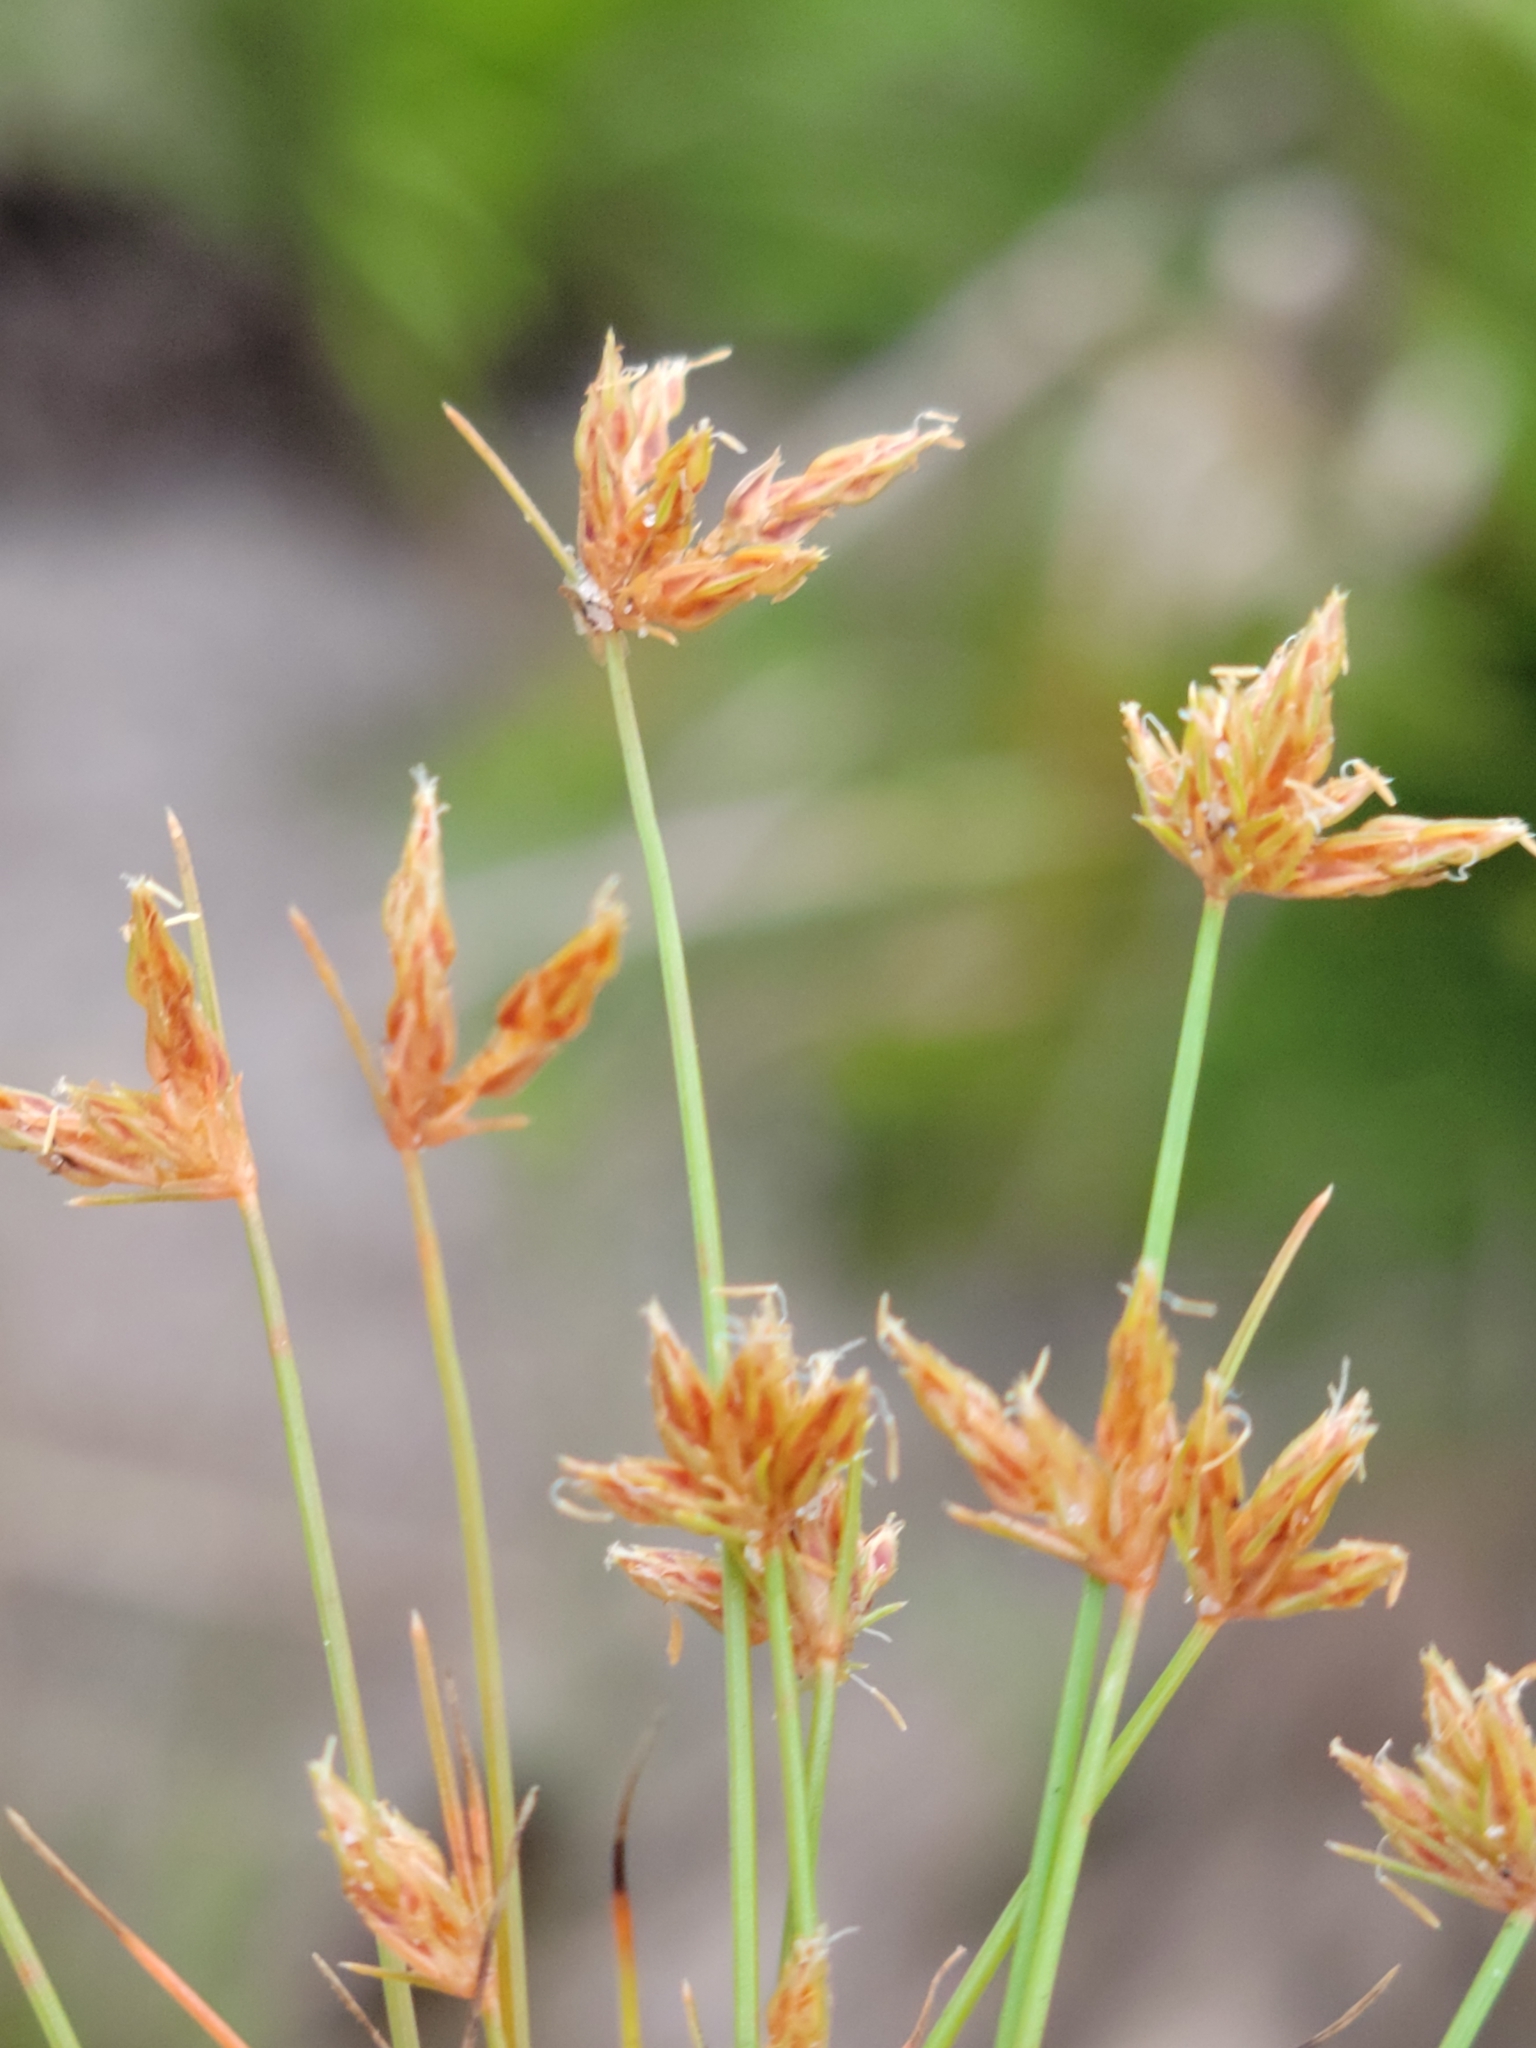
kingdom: Plantae
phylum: Tracheophyta
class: Liliopsida
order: Poales
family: Cyperaceae
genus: Bulbostylis
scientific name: Bulbostylis barbata
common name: Watergrass
